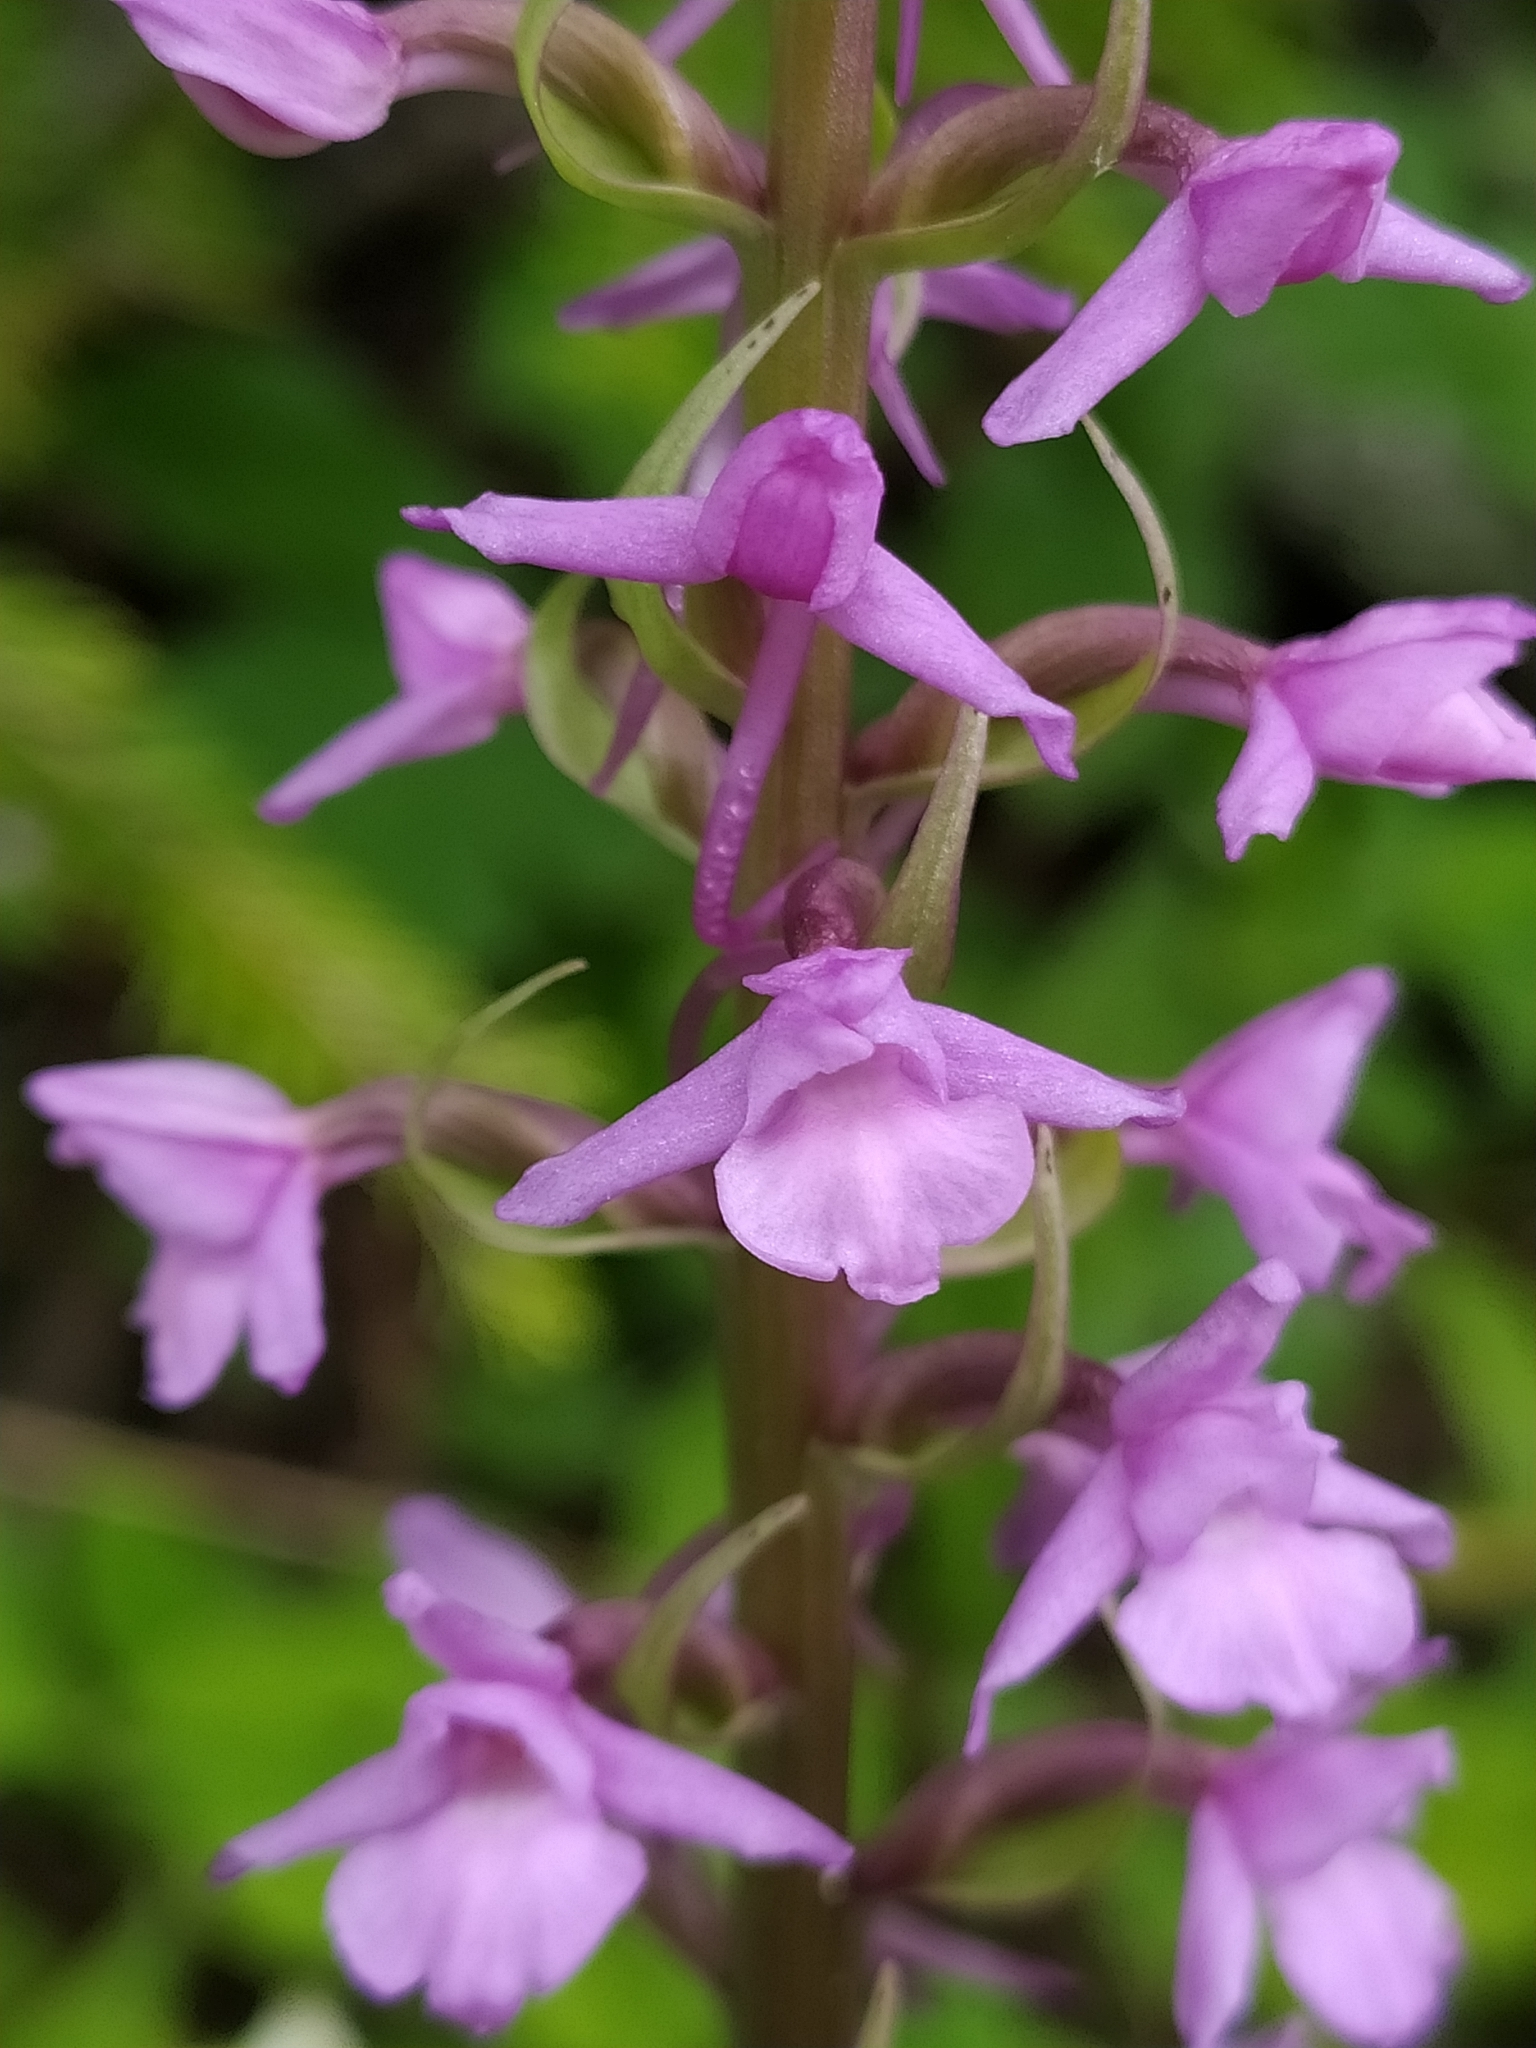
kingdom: Plantae
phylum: Tracheophyta
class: Liliopsida
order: Asparagales
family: Orchidaceae
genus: Gymnadenia
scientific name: Gymnadenia conopsea
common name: Fragrant orchid
